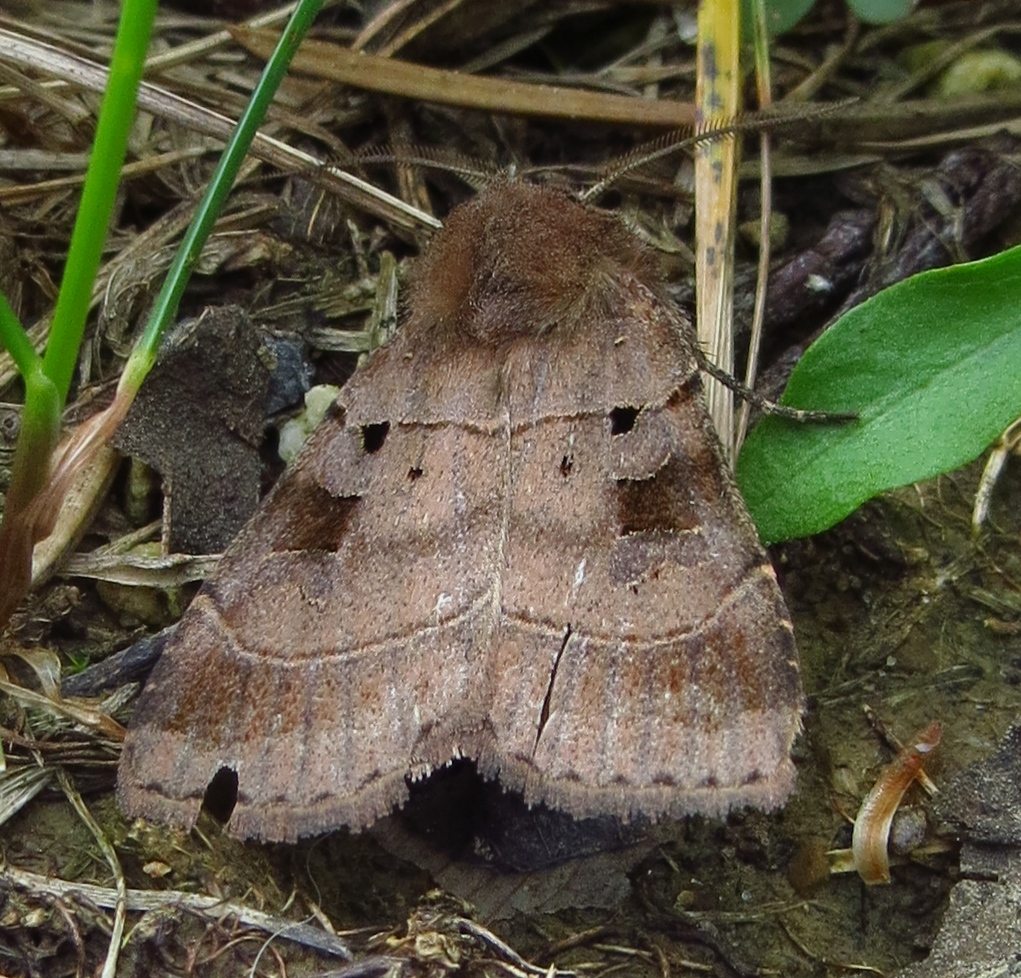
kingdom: Animalia
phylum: Arthropoda
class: Insecta
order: Lepidoptera
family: Noctuidae
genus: Agnorisma
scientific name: Agnorisma badinodis
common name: Pale-banded dart
